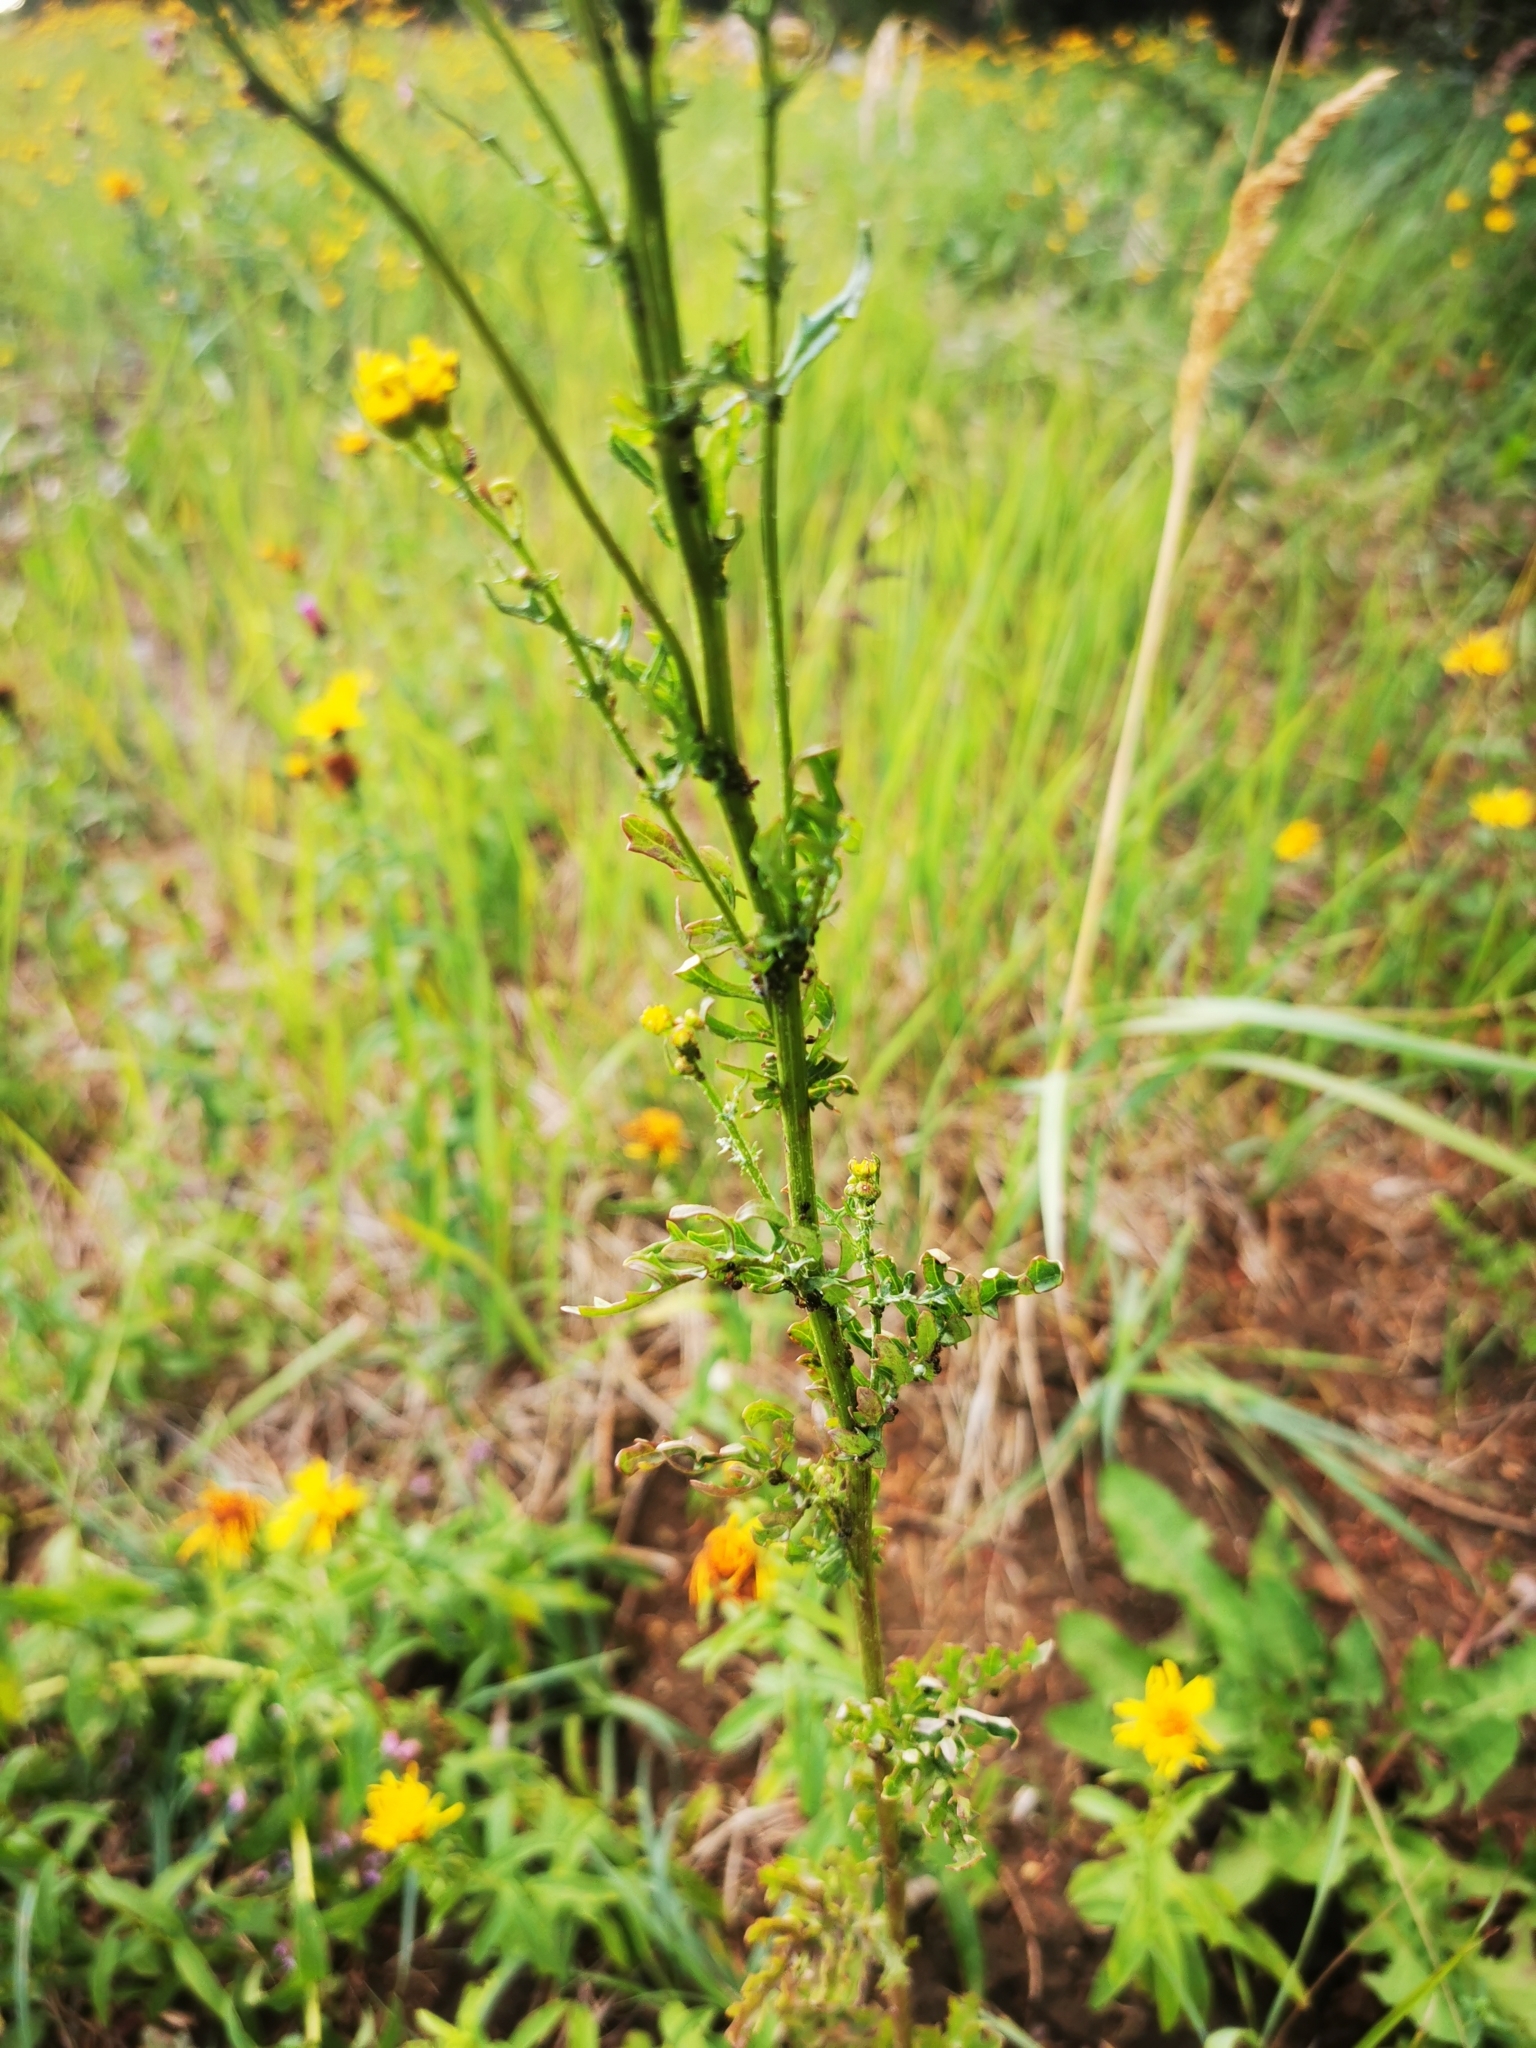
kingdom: Plantae
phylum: Tracheophyta
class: Magnoliopsida
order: Asterales
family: Asteraceae
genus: Jacobaea
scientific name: Jacobaea vulgaris
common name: Stinking willie
